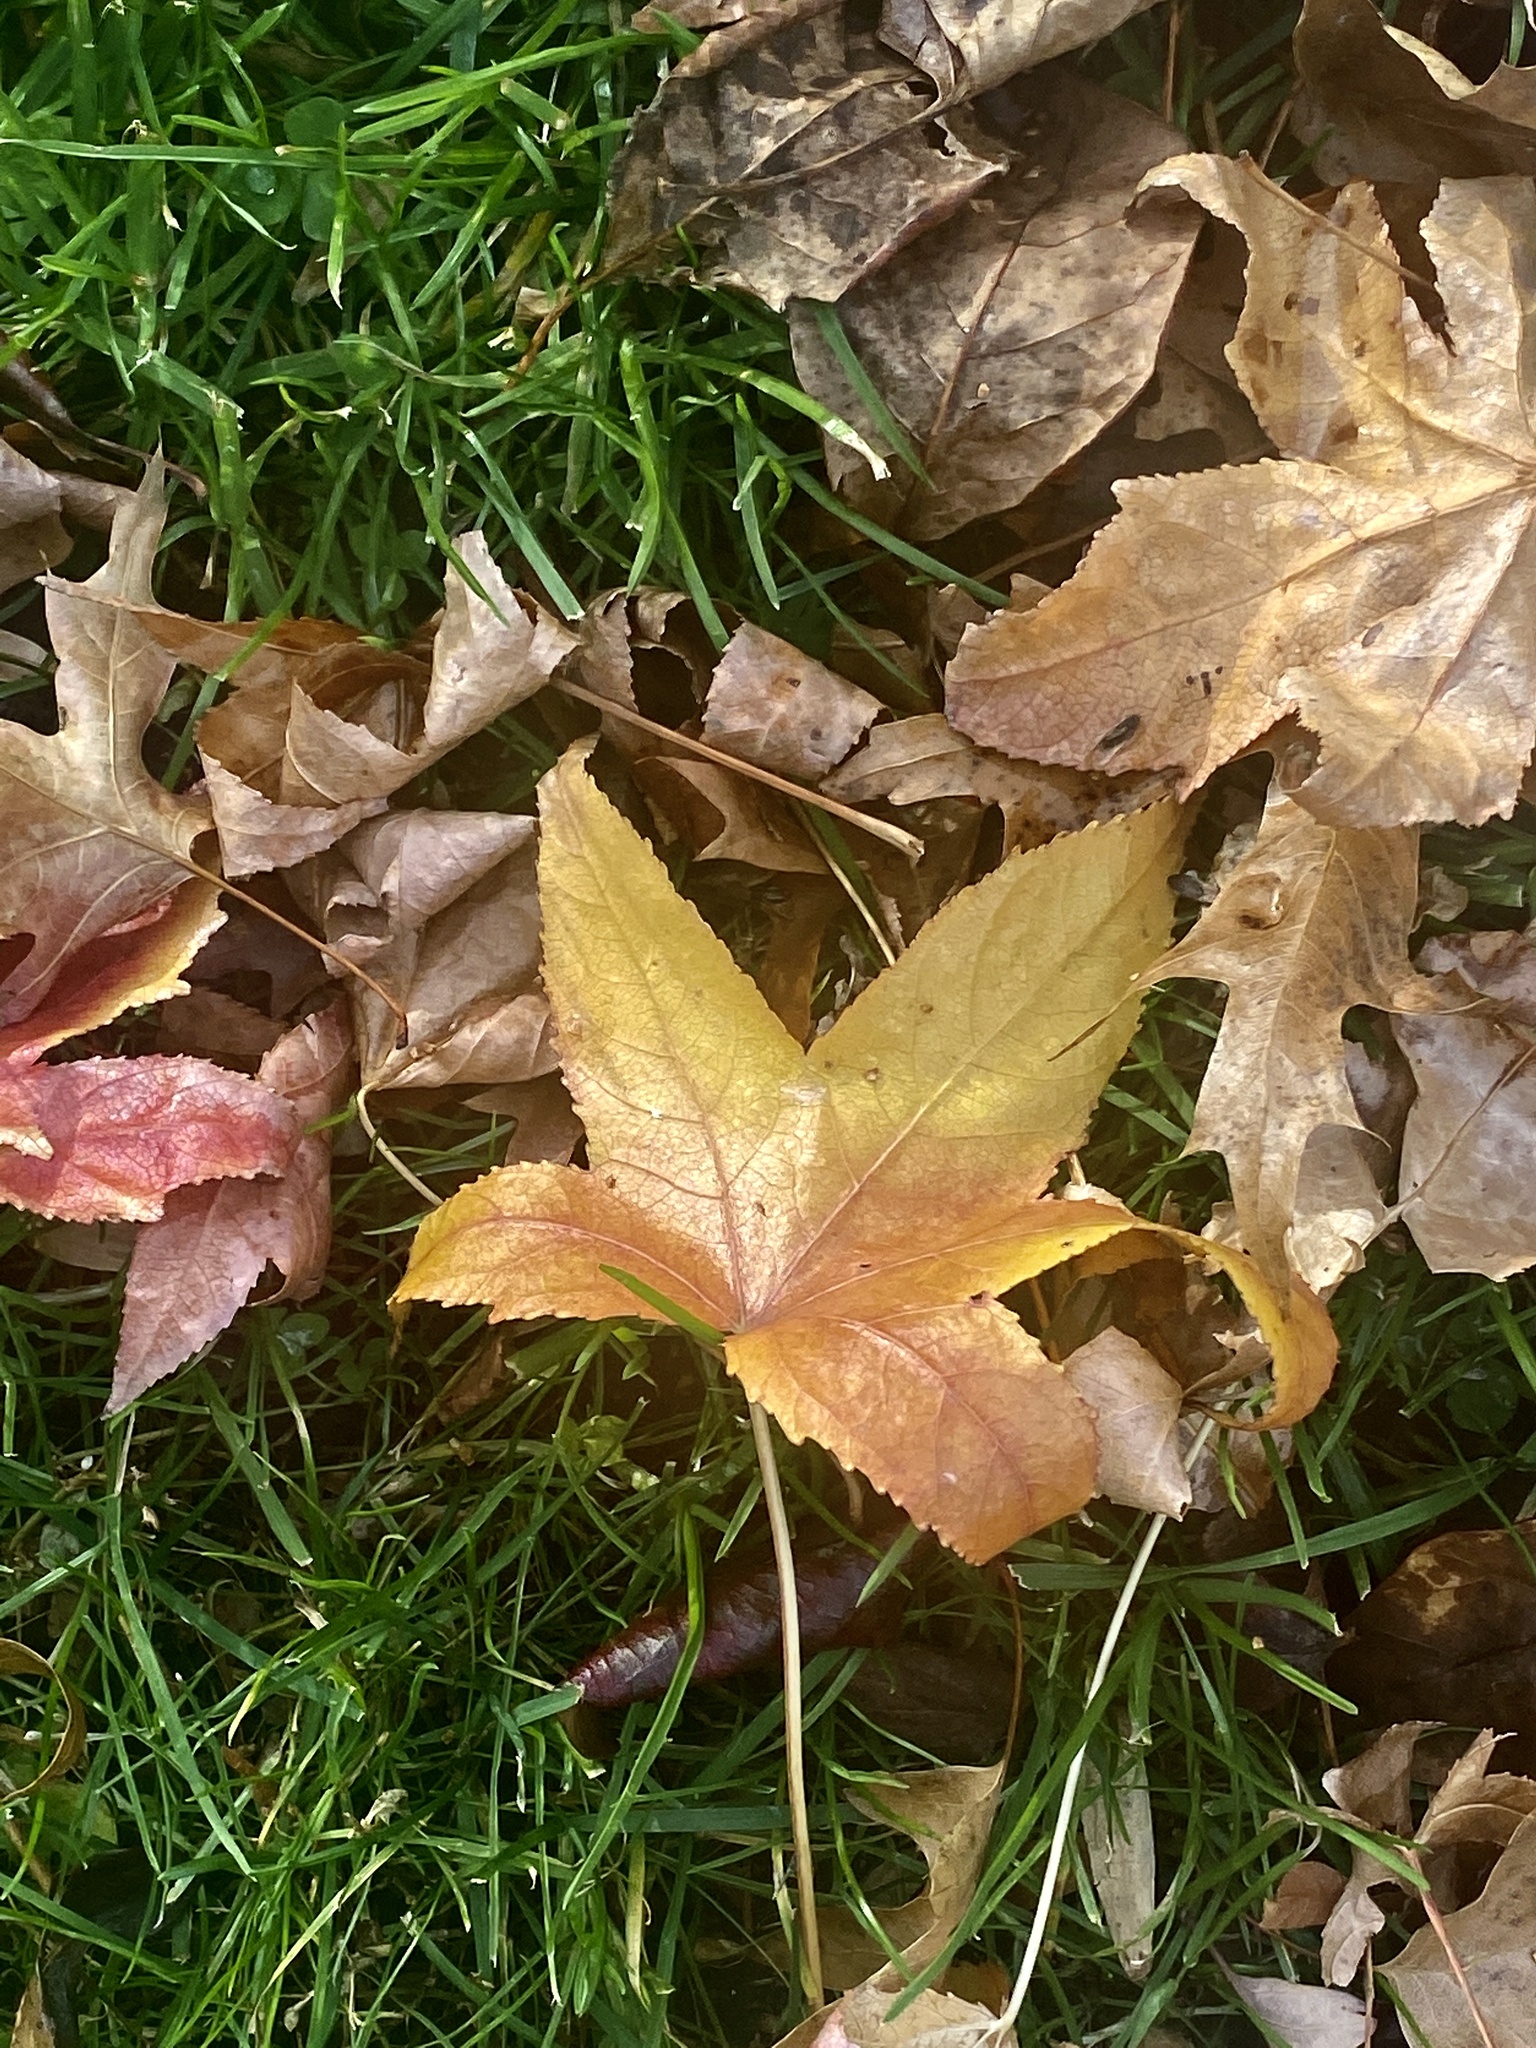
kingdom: Plantae
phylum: Tracheophyta
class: Magnoliopsida
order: Saxifragales
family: Altingiaceae
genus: Liquidambar
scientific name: Liquidambar styraciflua
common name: Sweet gum
